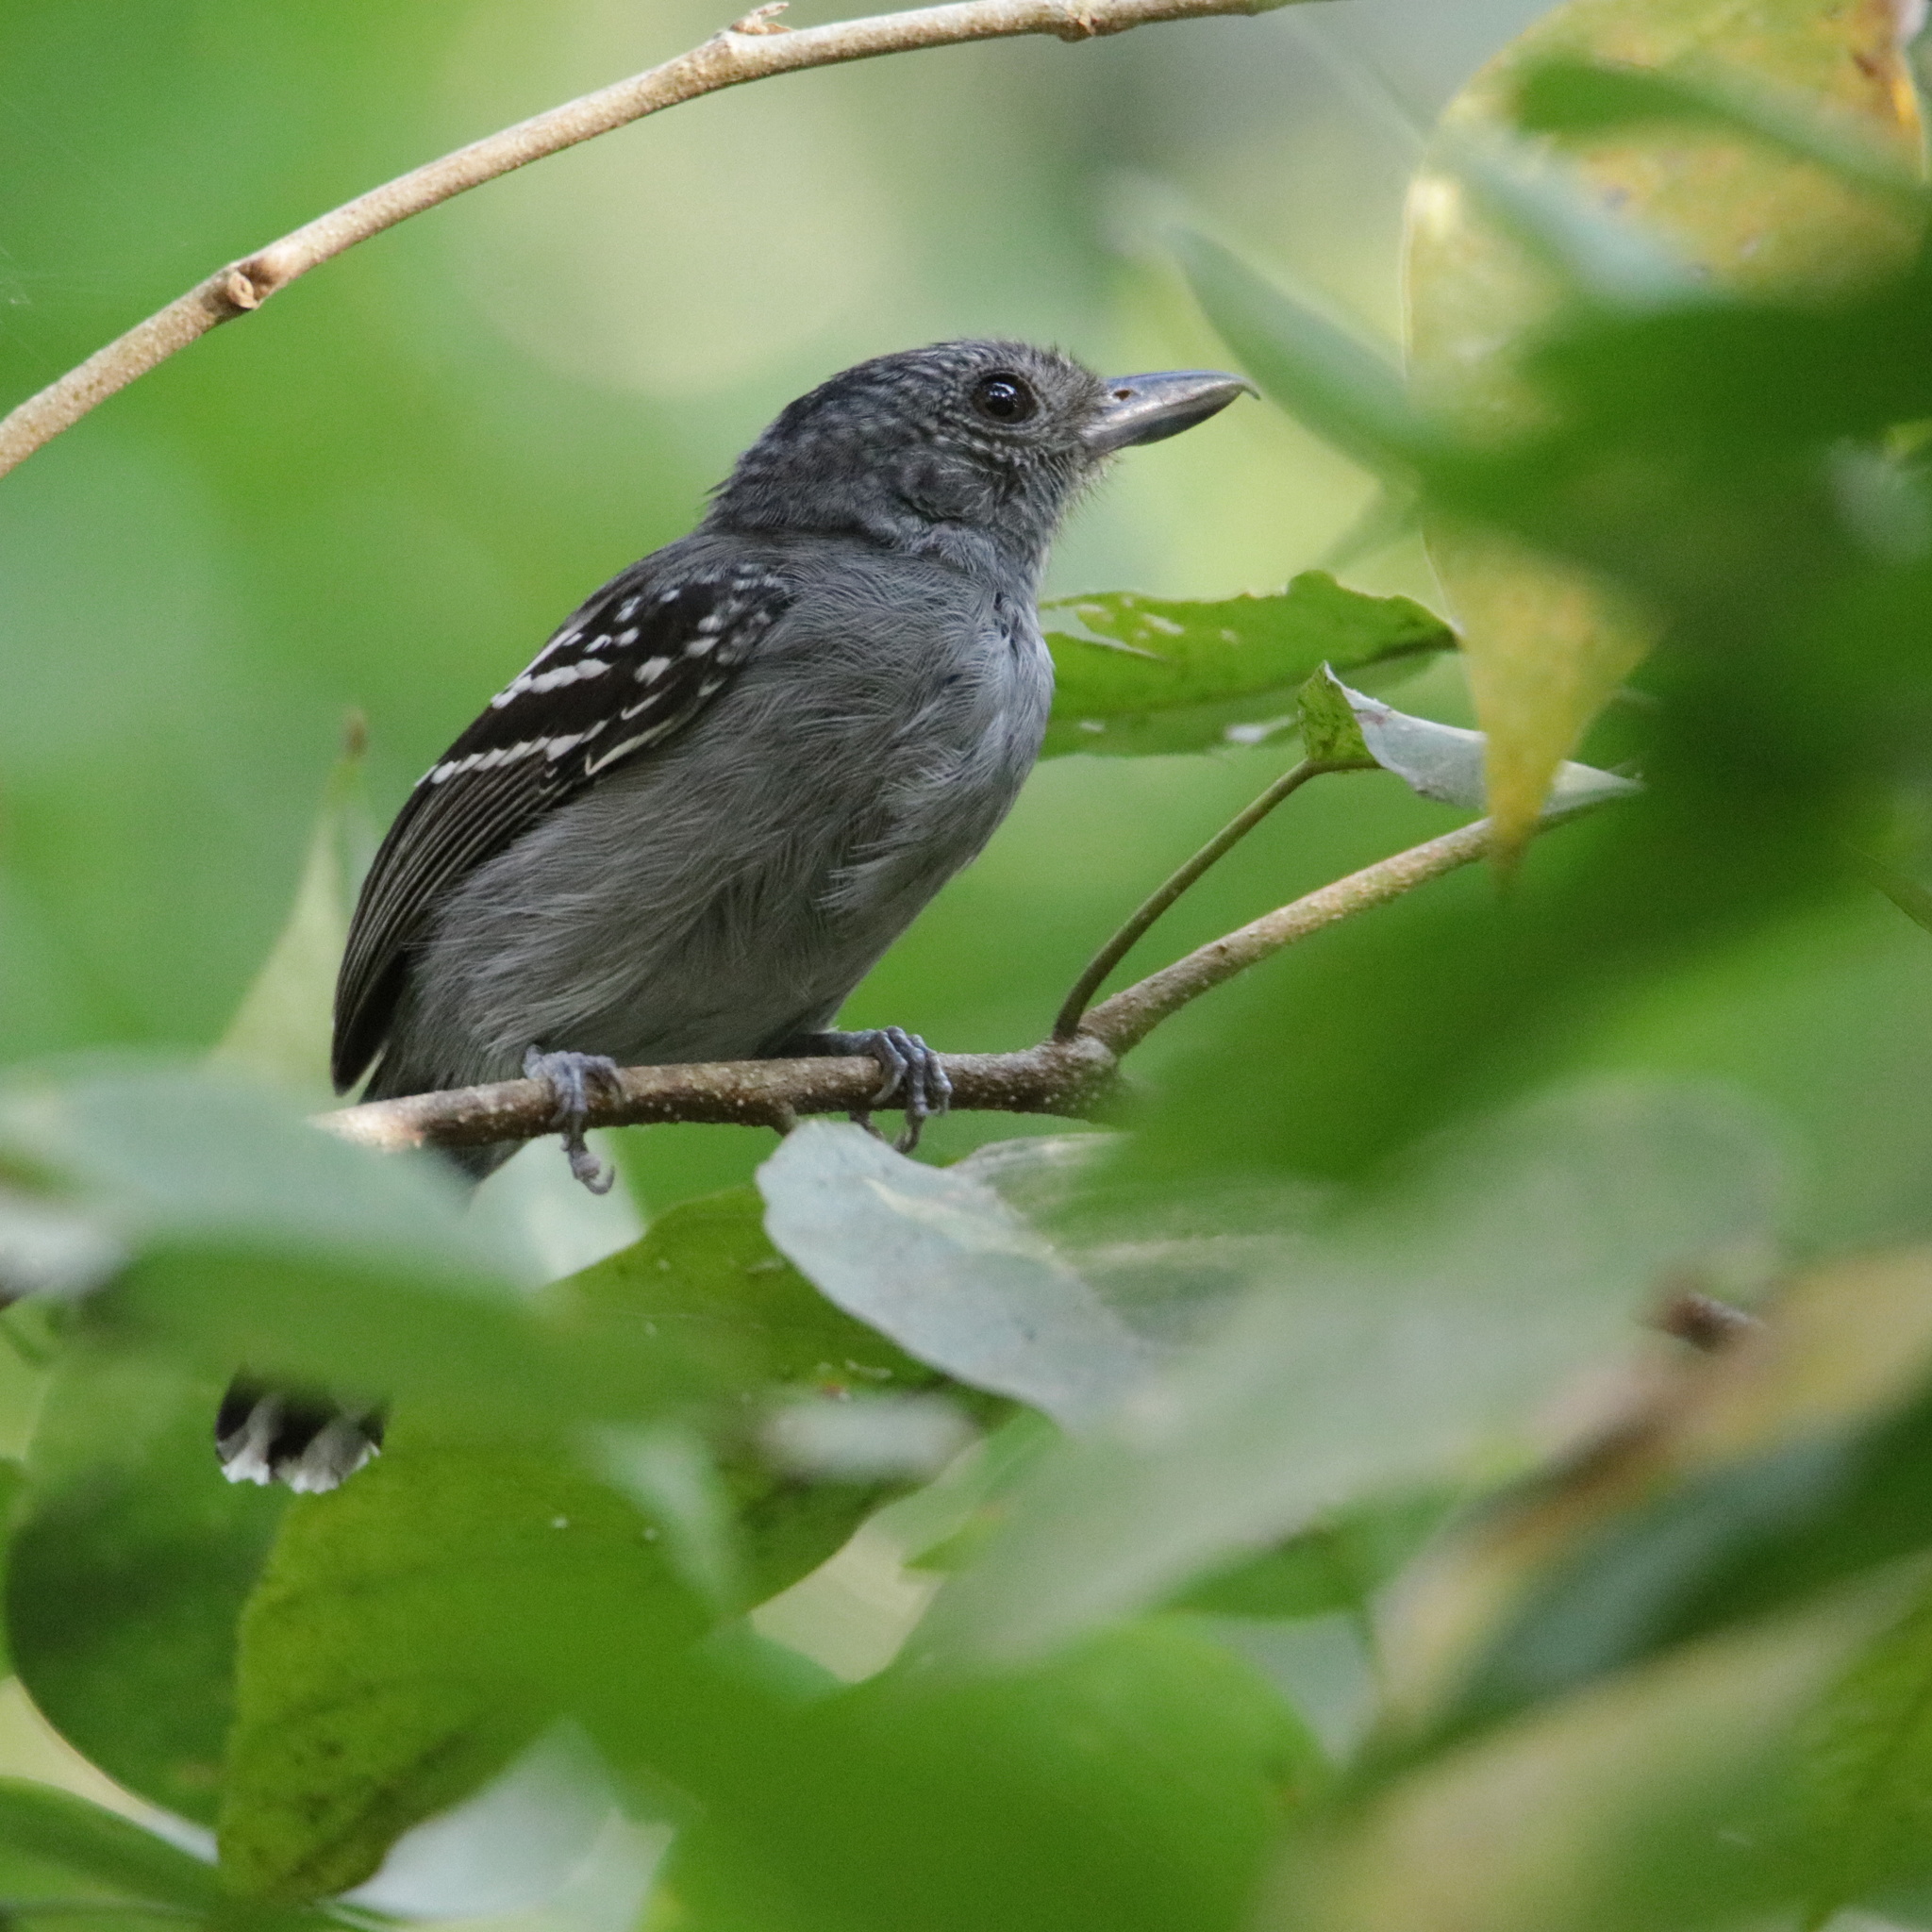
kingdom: Animalia
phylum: Chordata
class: Aves
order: Passeriformes
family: Thamnophilidae
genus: Thamnophilus
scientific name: Thamnophilus atrinucha
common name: Black-crowned antshrike
